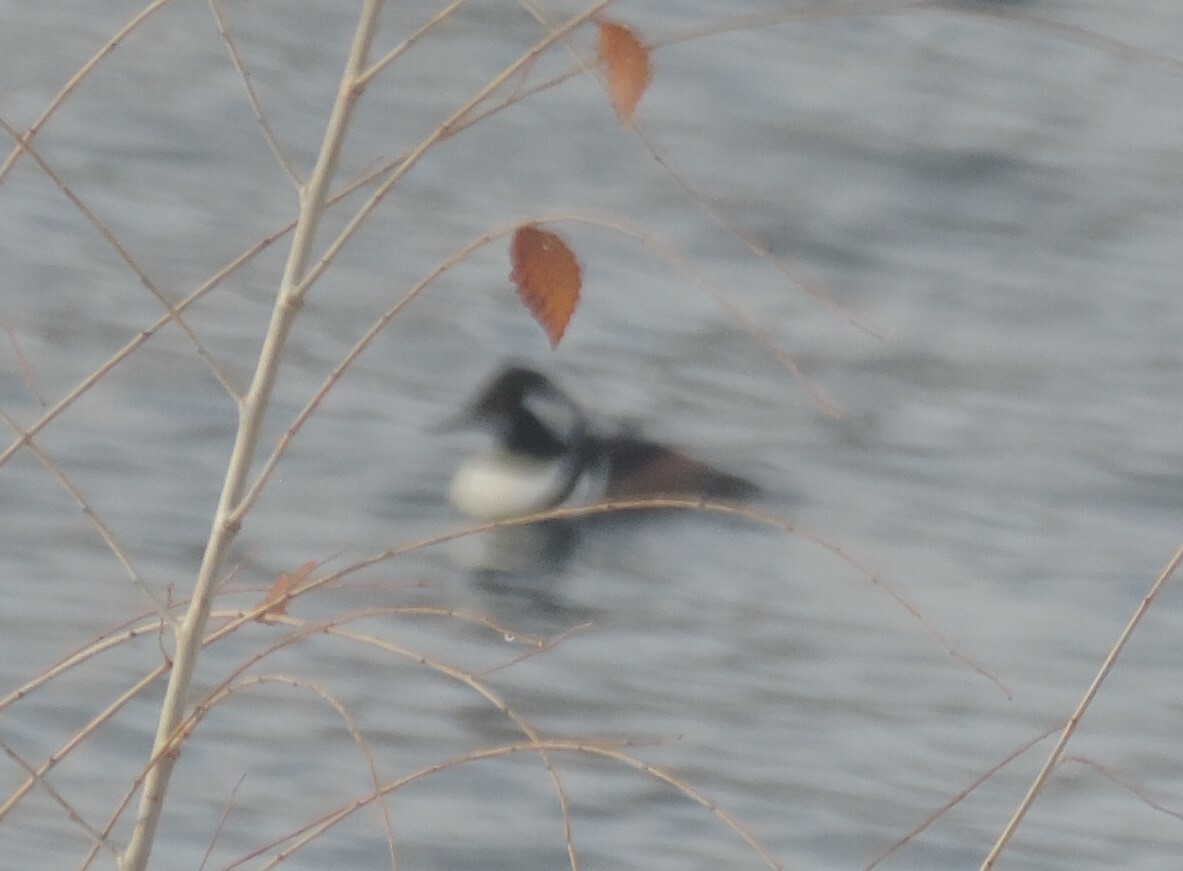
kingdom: Animalia
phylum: Chordata
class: Aves
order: Anseriformes
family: Anatidae
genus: Lophodytes
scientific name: Lophodytes cucullatus
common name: Hooded merganser
